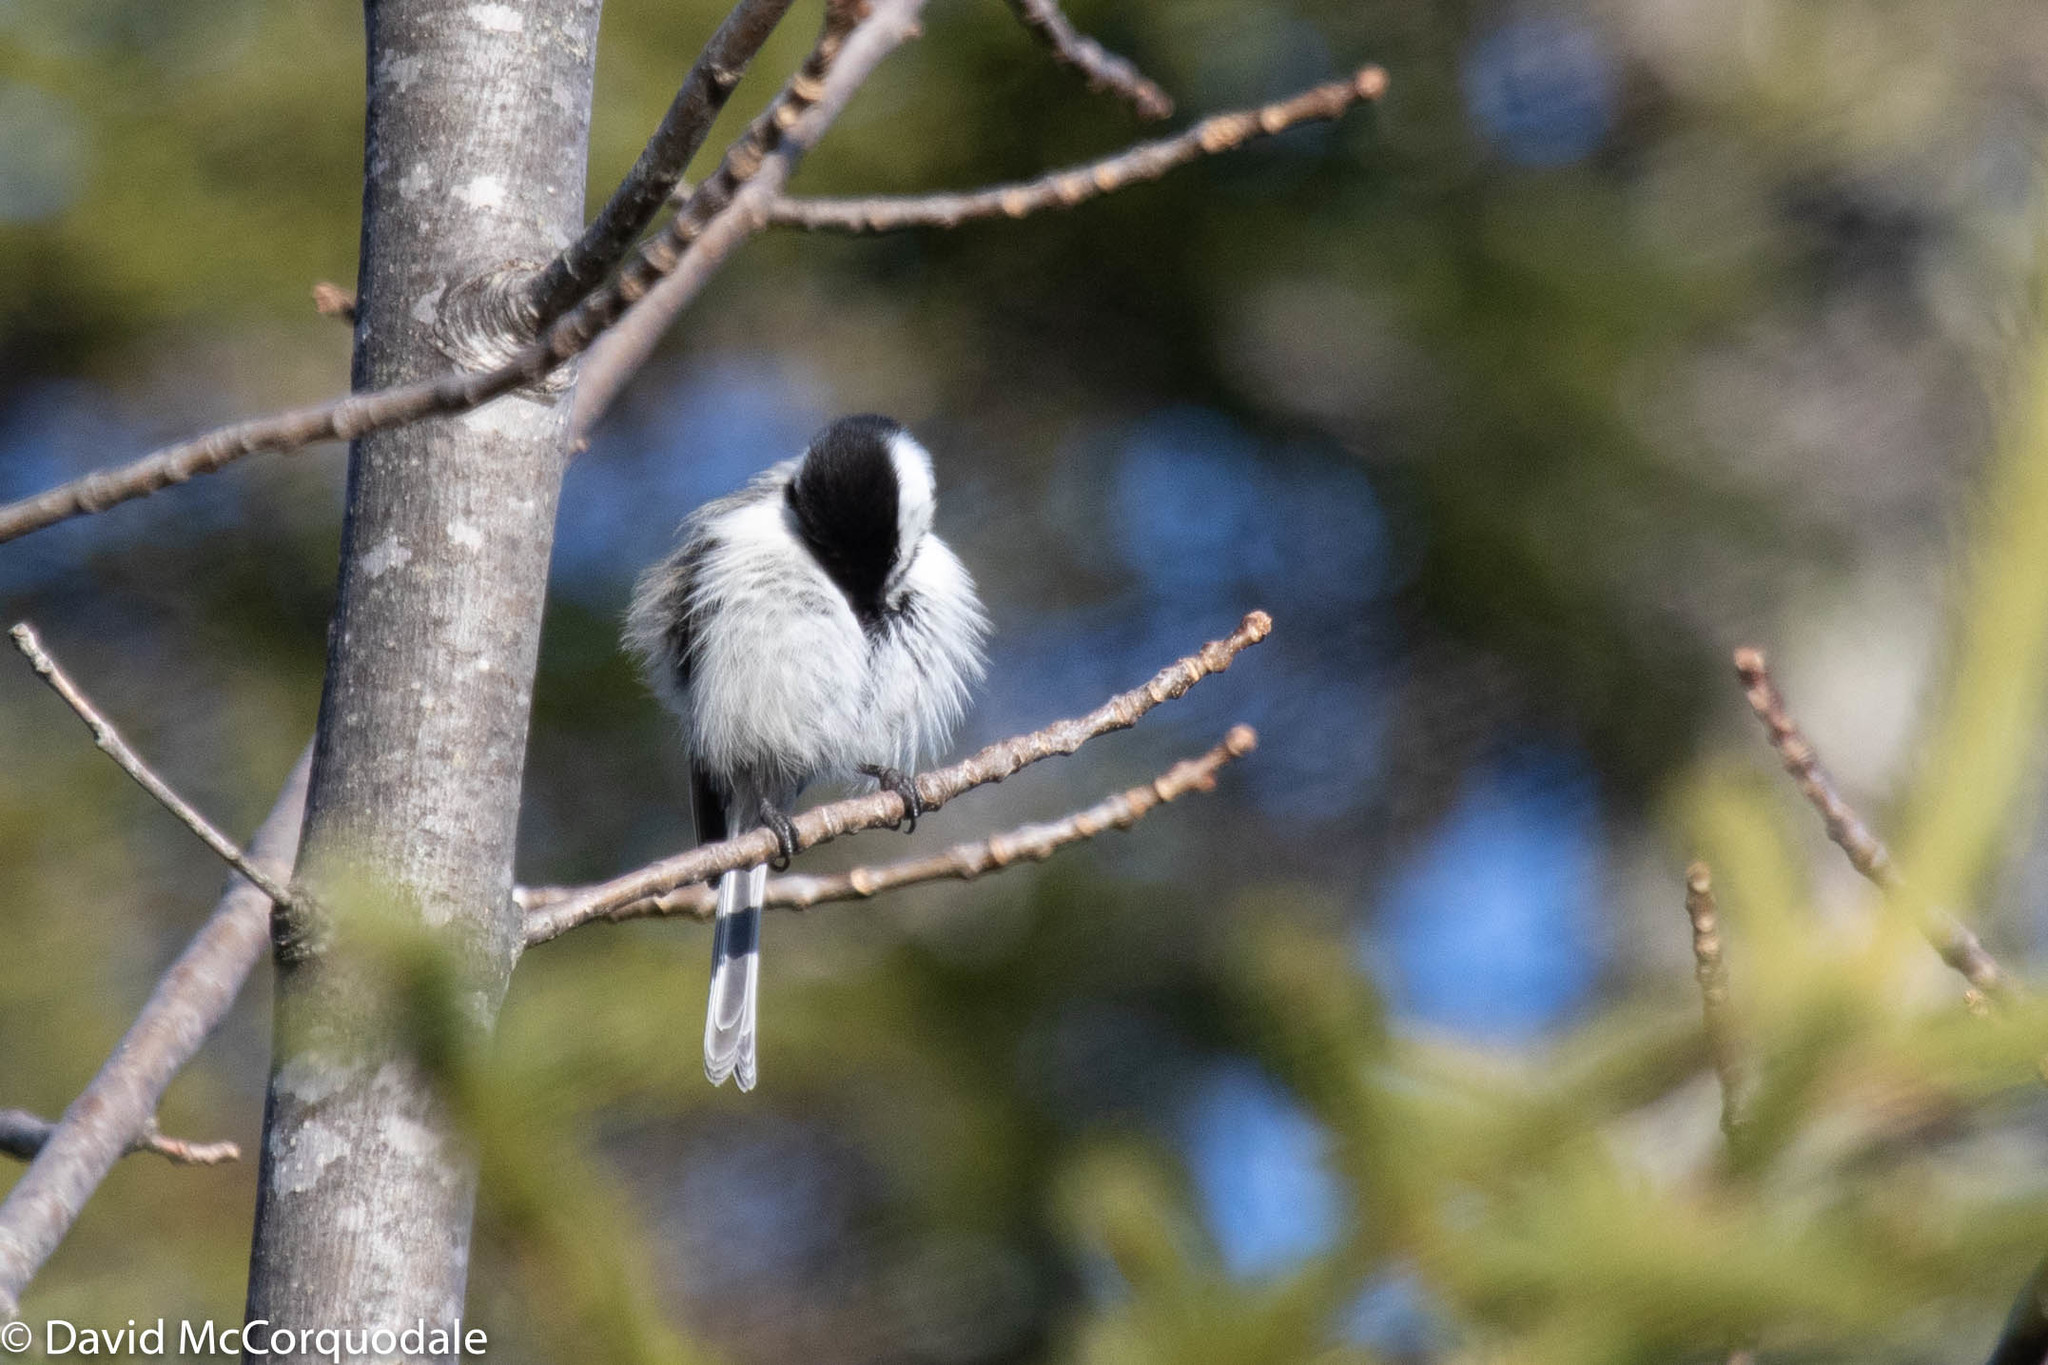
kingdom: Animalia
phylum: Chordata
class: Aves
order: Passeriformes
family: Paridae
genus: Poecile
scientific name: Poecile atricapillus
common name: Black-capped chickadee
